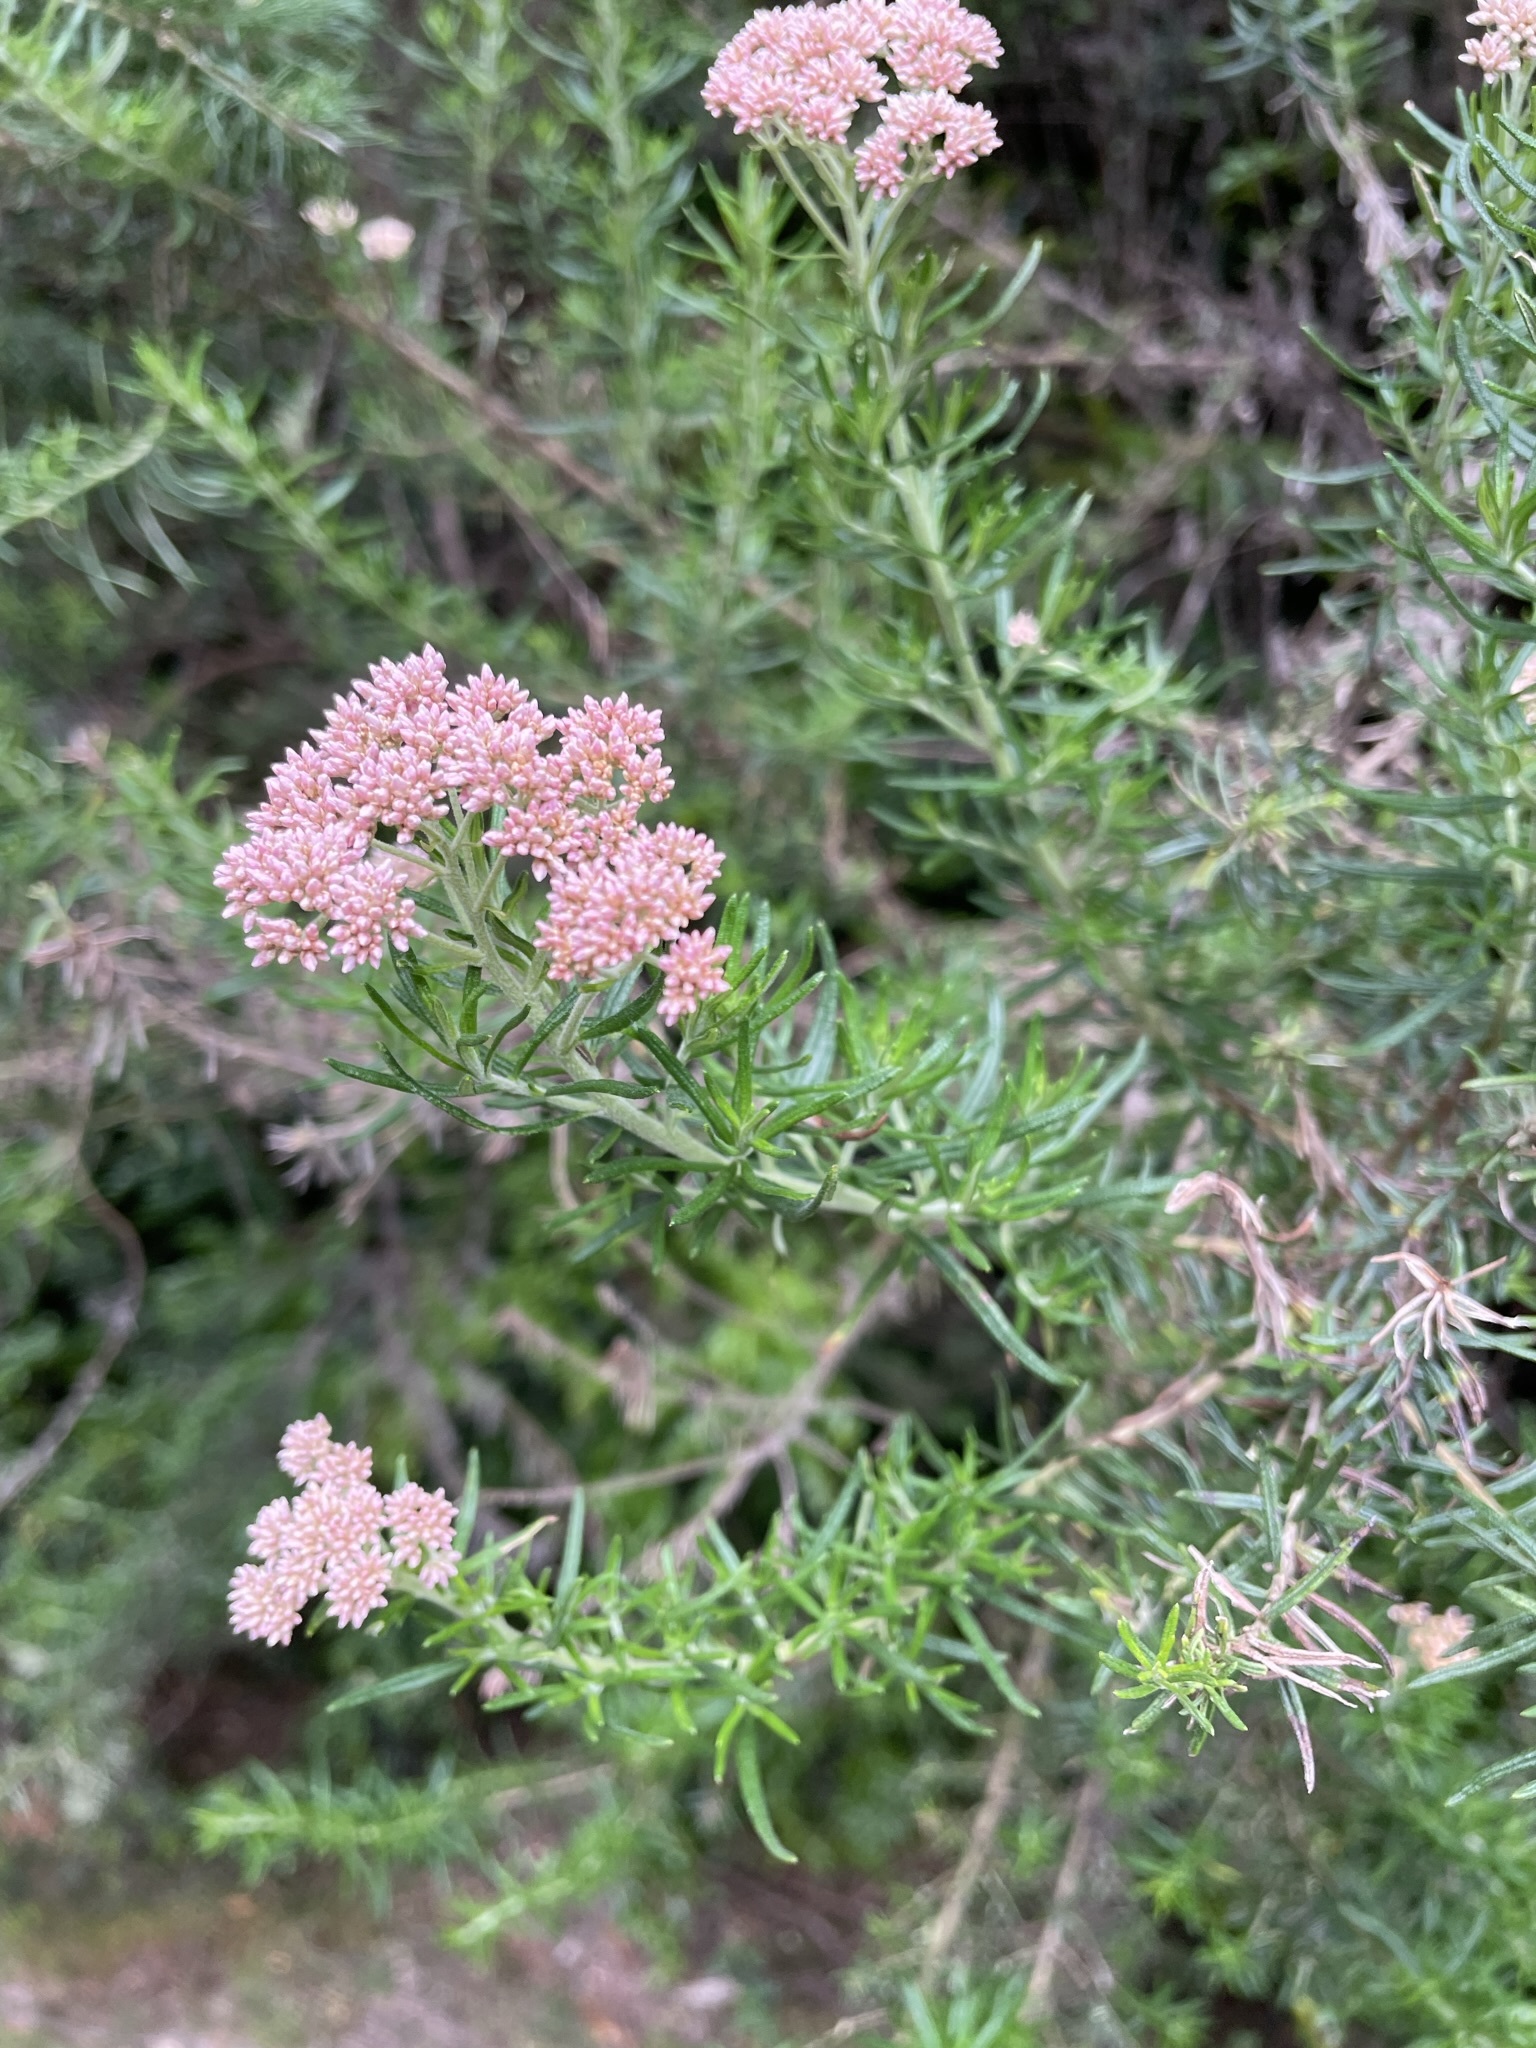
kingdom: Plantae
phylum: Tracheophyta
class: Magnoliopsida
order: Asterales
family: Asteraceae
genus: Cassinia
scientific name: Cassinia aculeata
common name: Australian tauhinu
